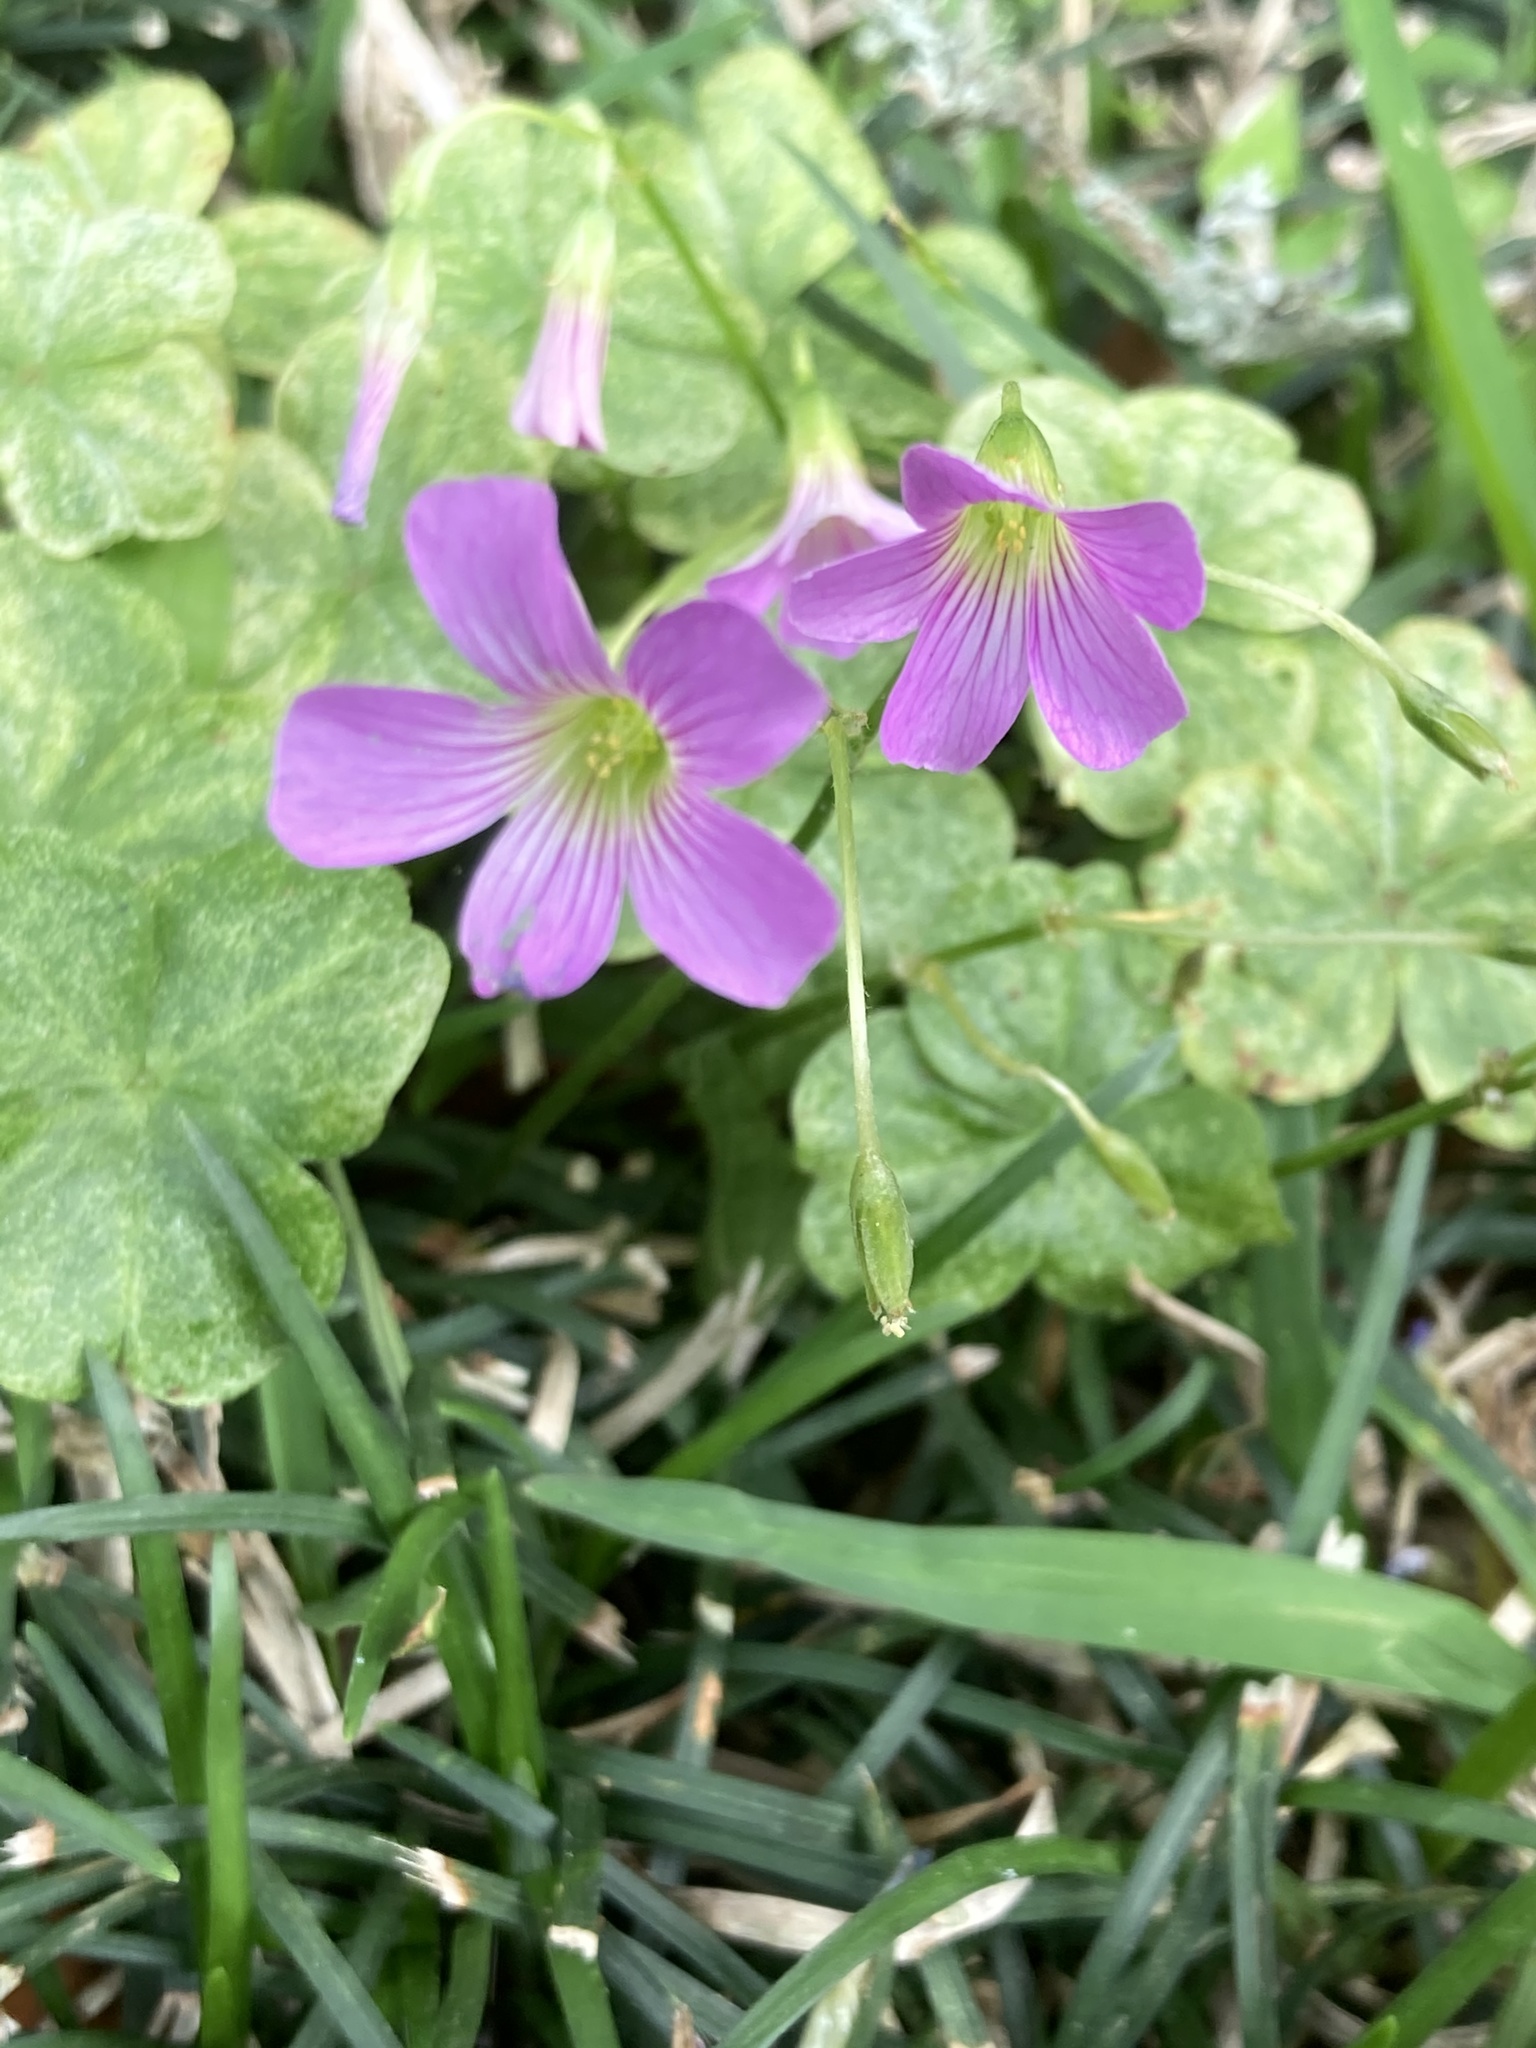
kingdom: Plantae
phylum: Tracheophyta
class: Magnoliopsida
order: Oxalidales
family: Oxalidaceae
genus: Oxalis
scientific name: Oxalis debilis
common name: Large-flowered pink-sorrel
